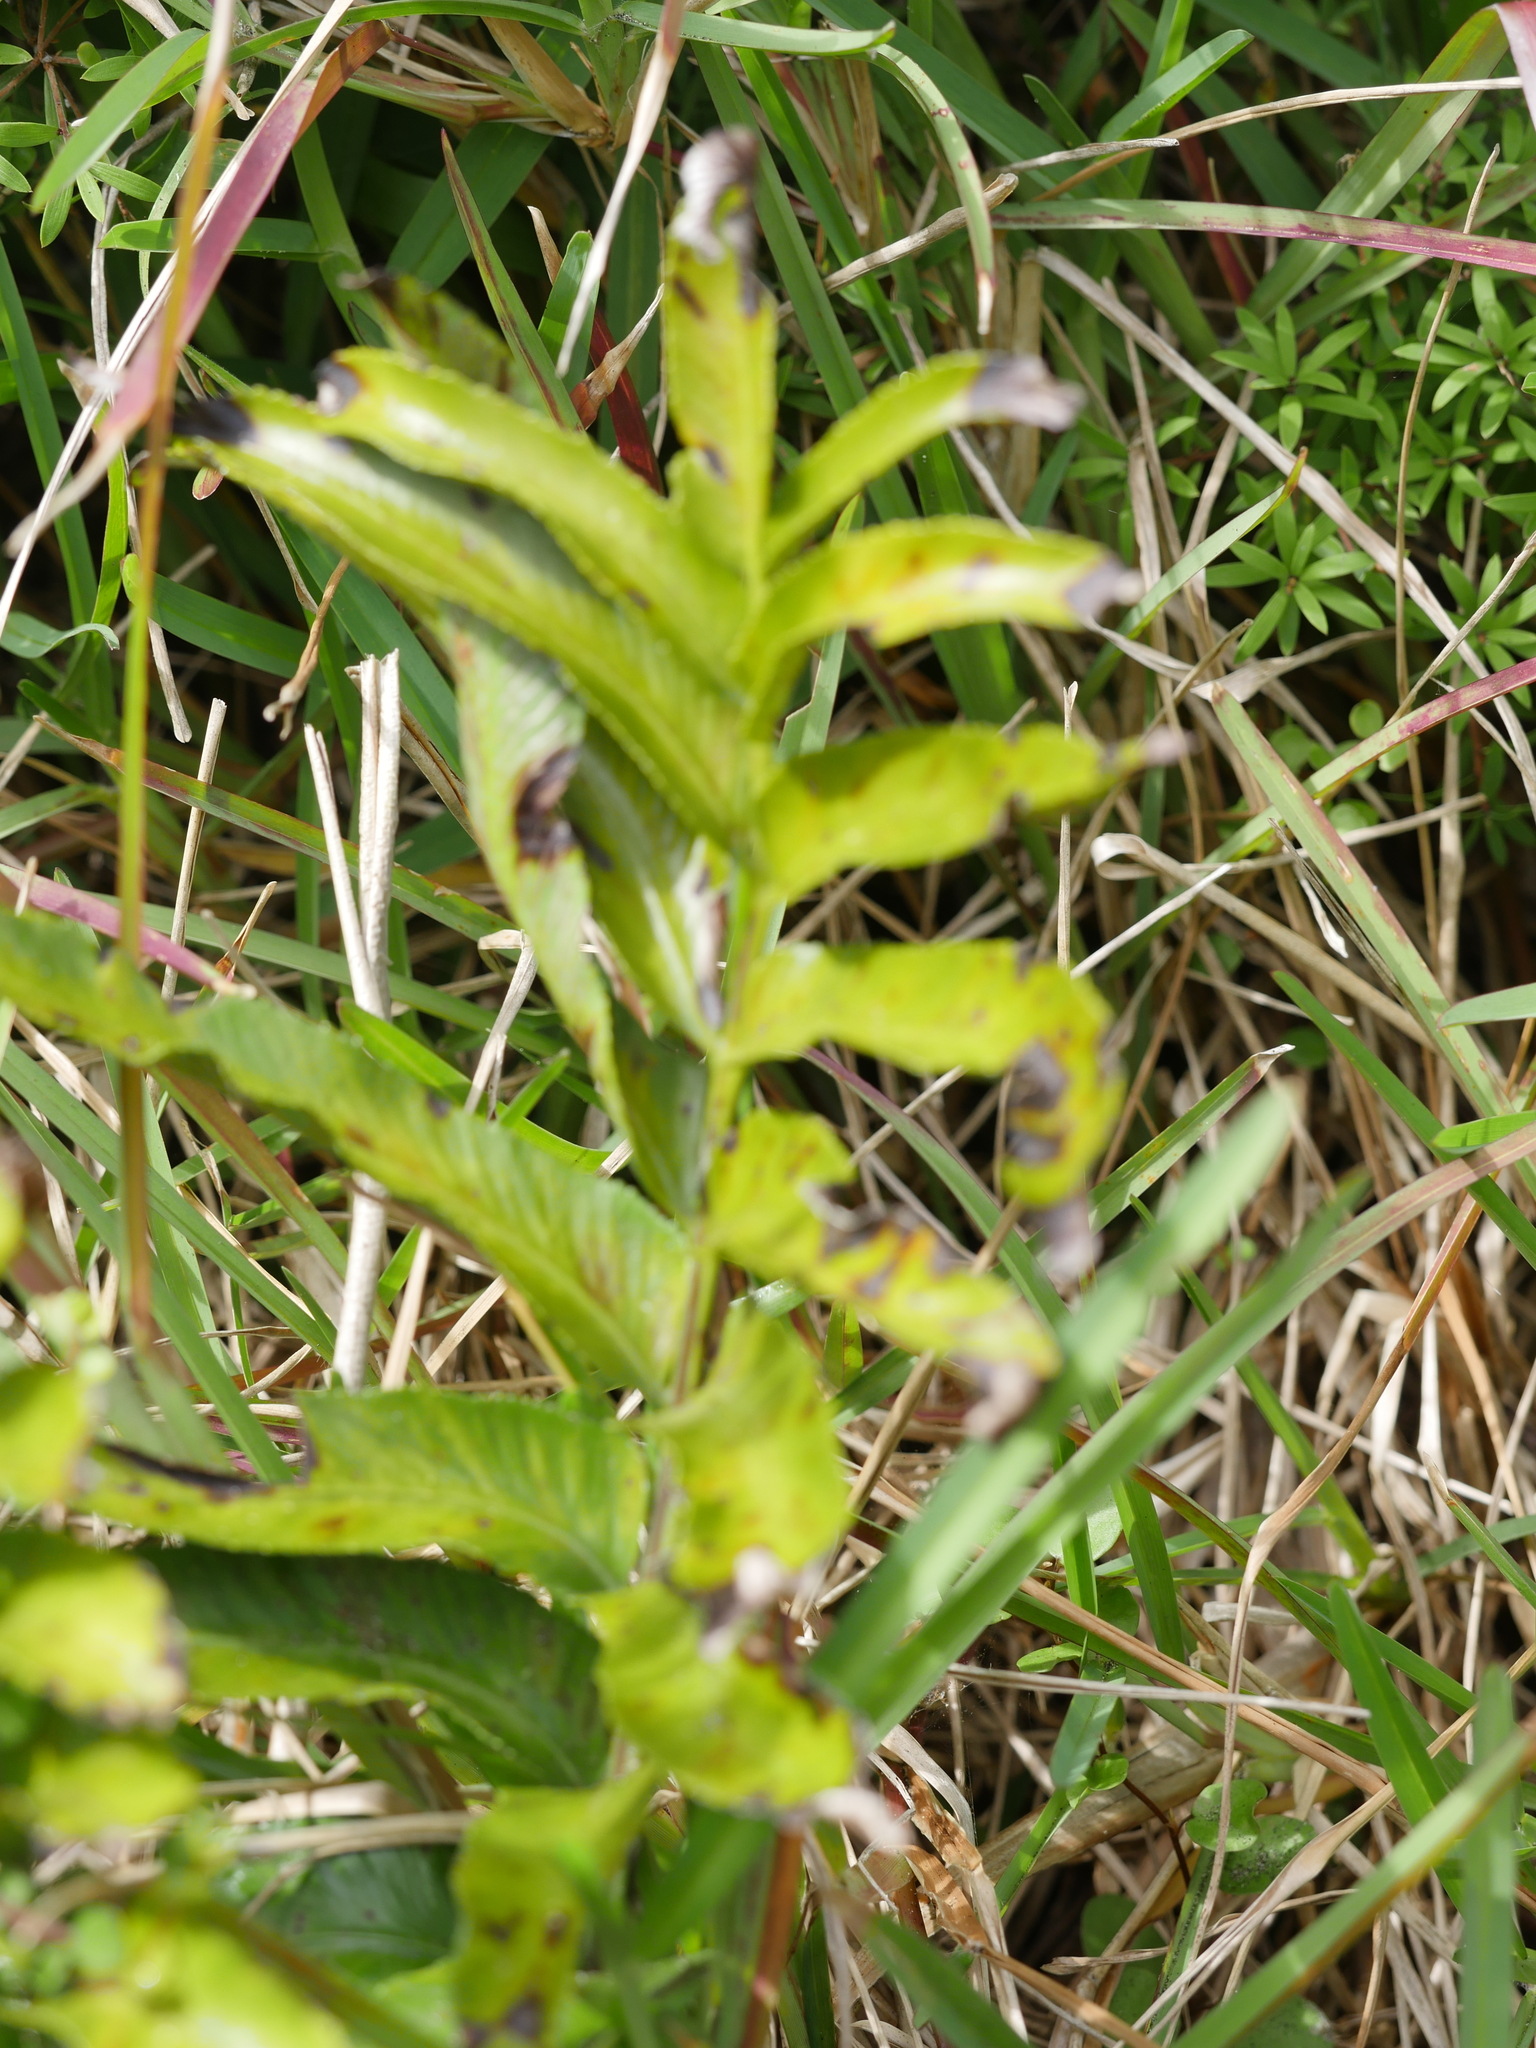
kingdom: Plantae
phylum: Tracheophyta
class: Polypodiopsida
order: Polypodiales
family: Aspleniaceae
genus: Asplenium
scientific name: Asplenium oblongifolium
